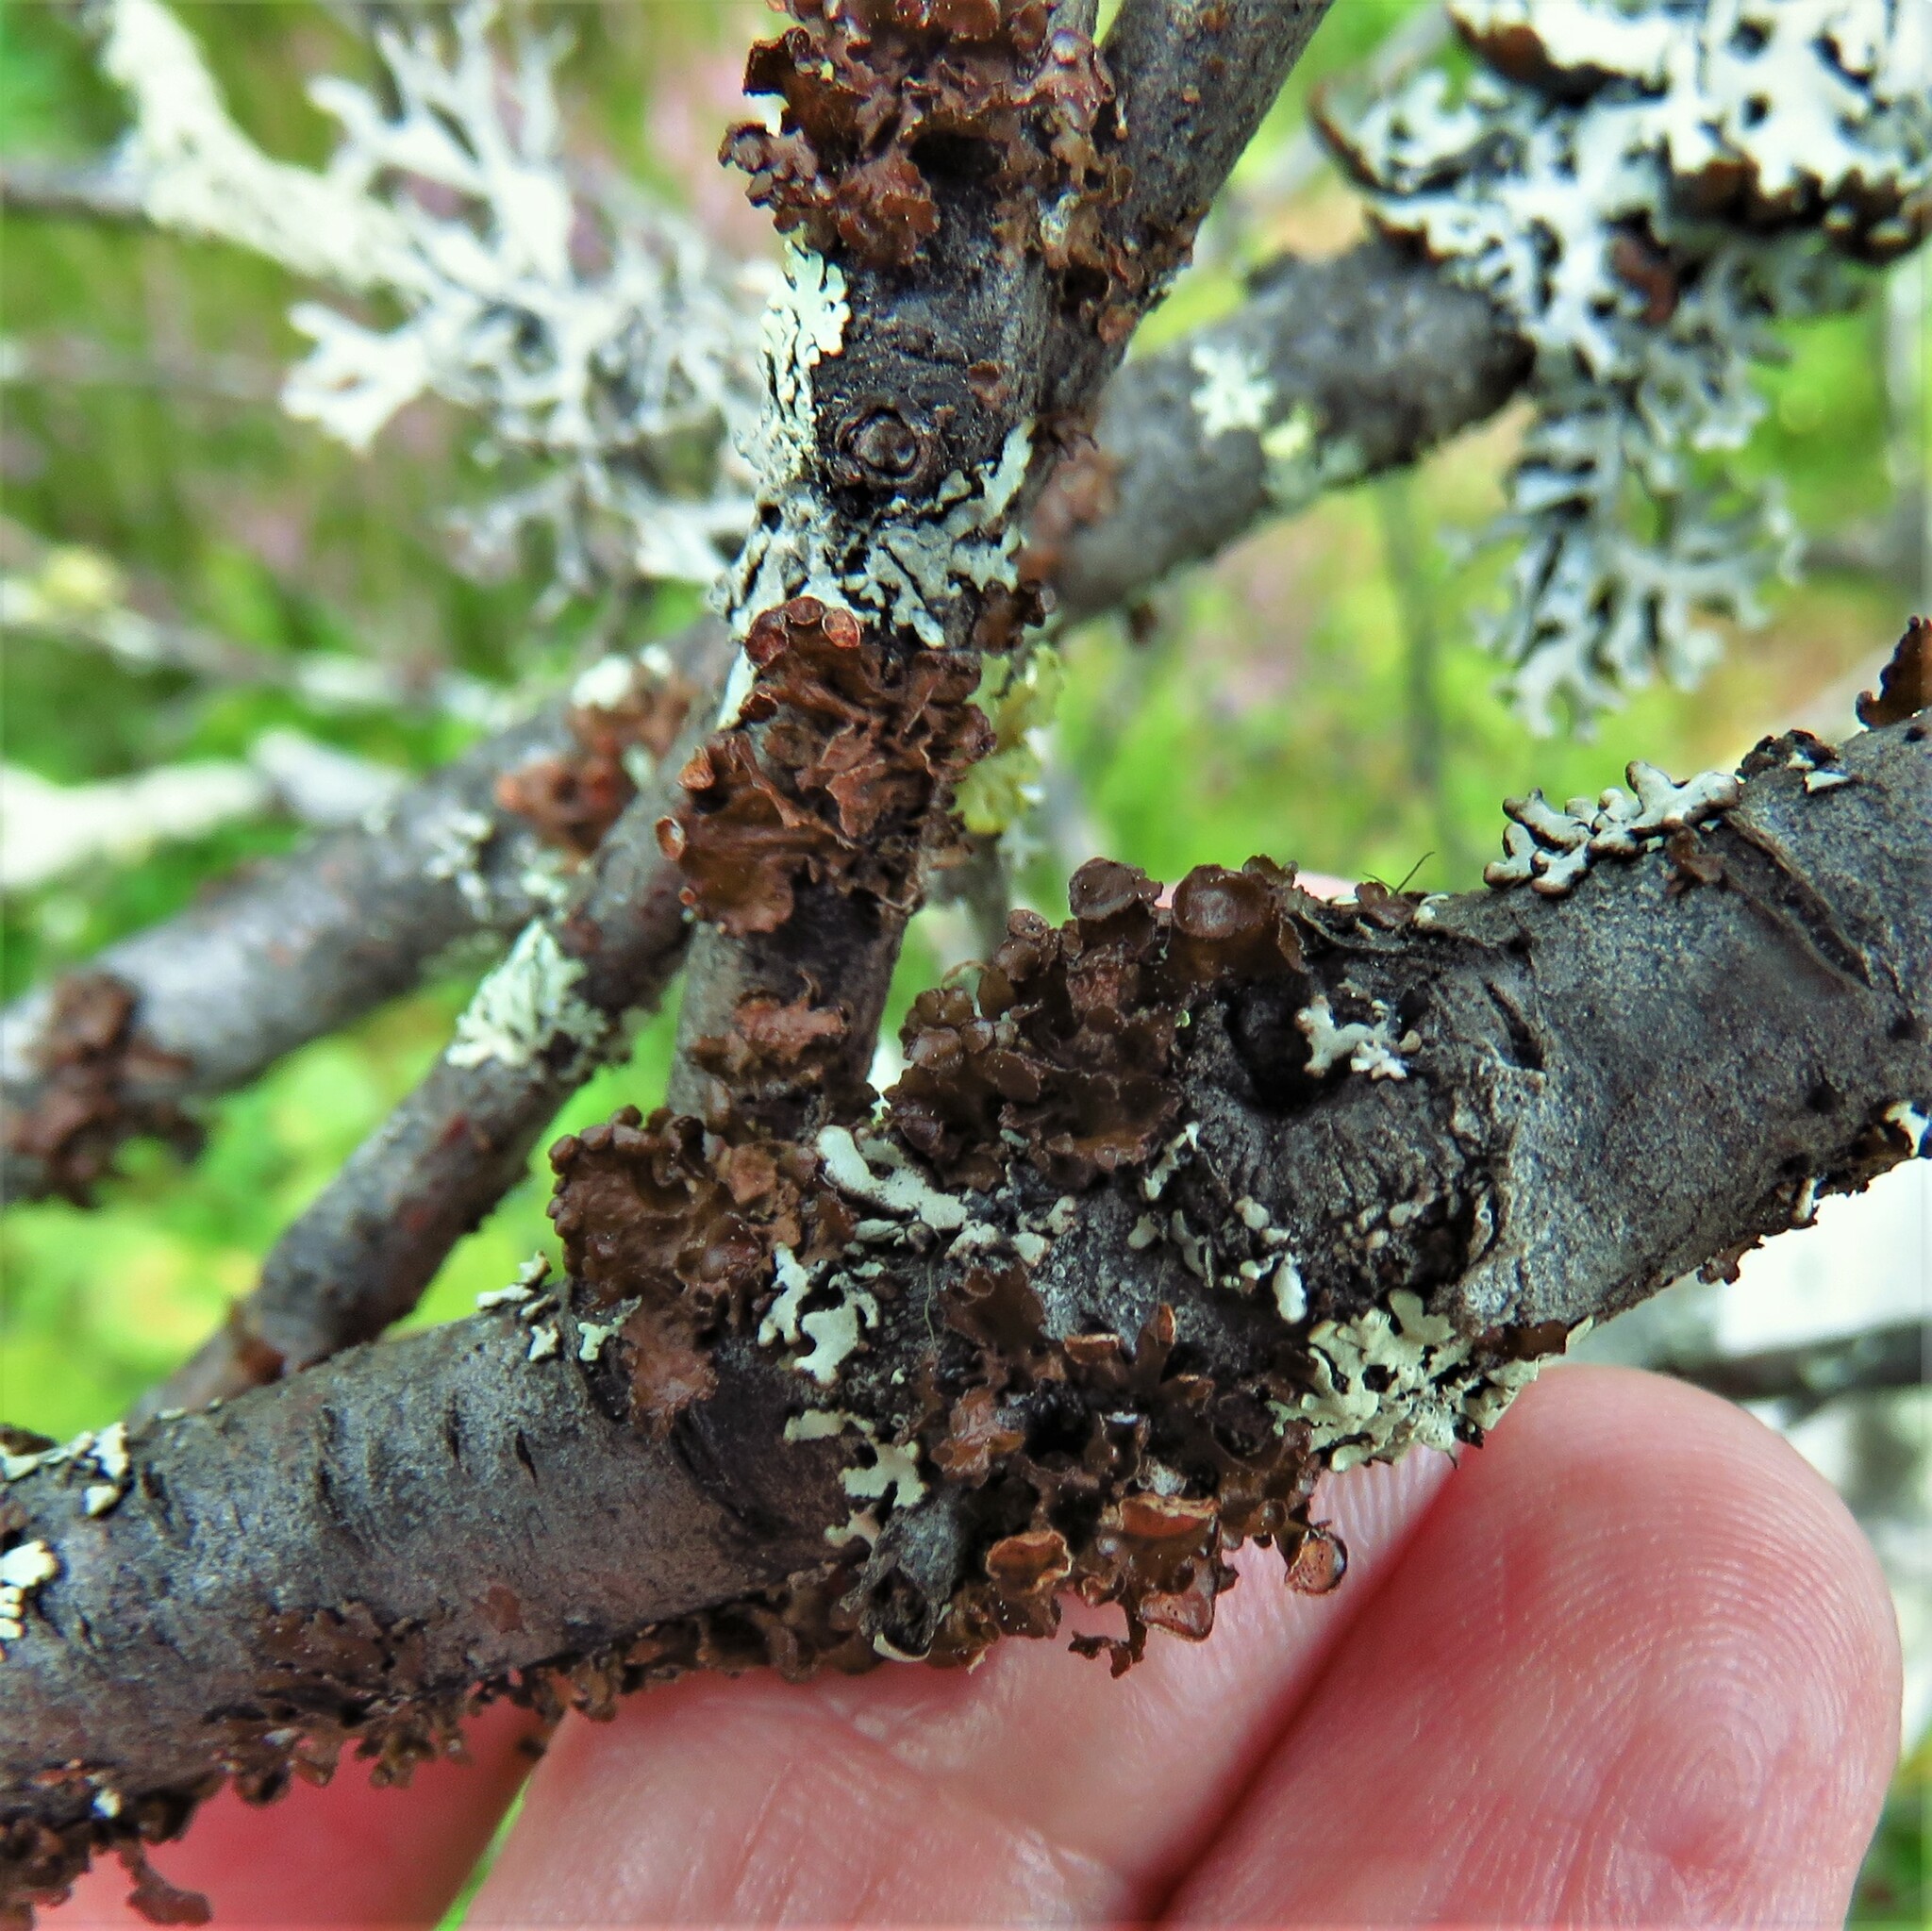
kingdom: Fungi
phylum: Ascomycota
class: Lecanoromycetes
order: Lecanorales
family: Parmeliaceae
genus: Cetraria
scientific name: Cetraria sepincola
